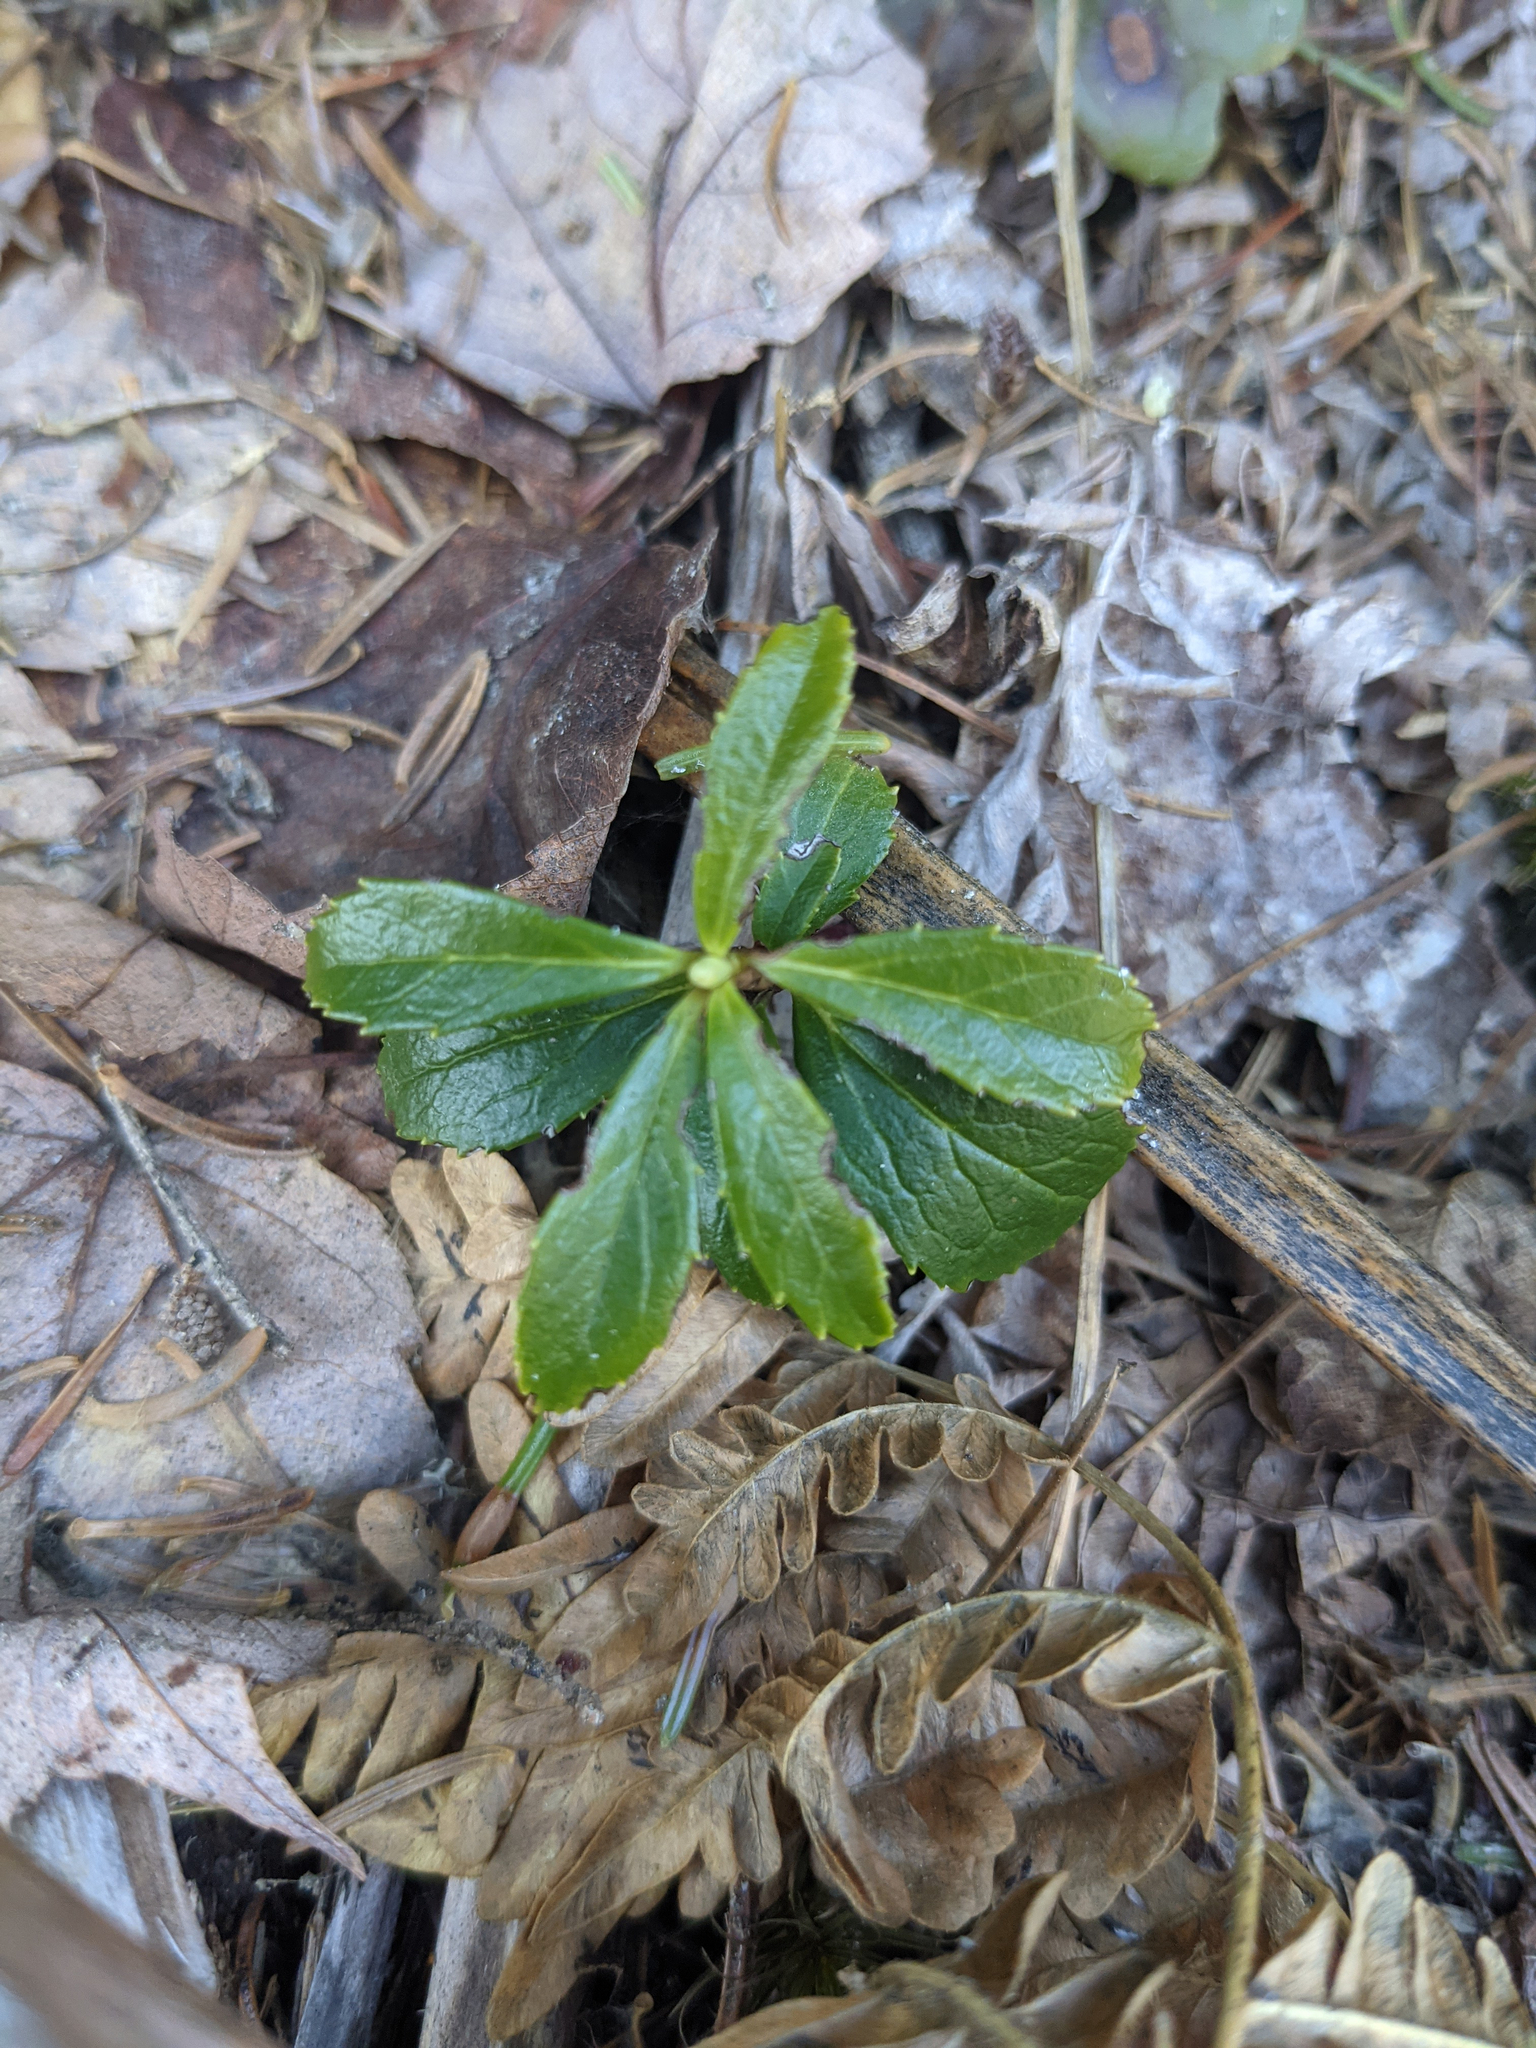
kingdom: Plantae
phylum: Tracheophyta
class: Magnoliopsida
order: Ericales
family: Ericaceae
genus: Chimaphila
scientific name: Chimaphila umbellata
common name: Pipsissewa
